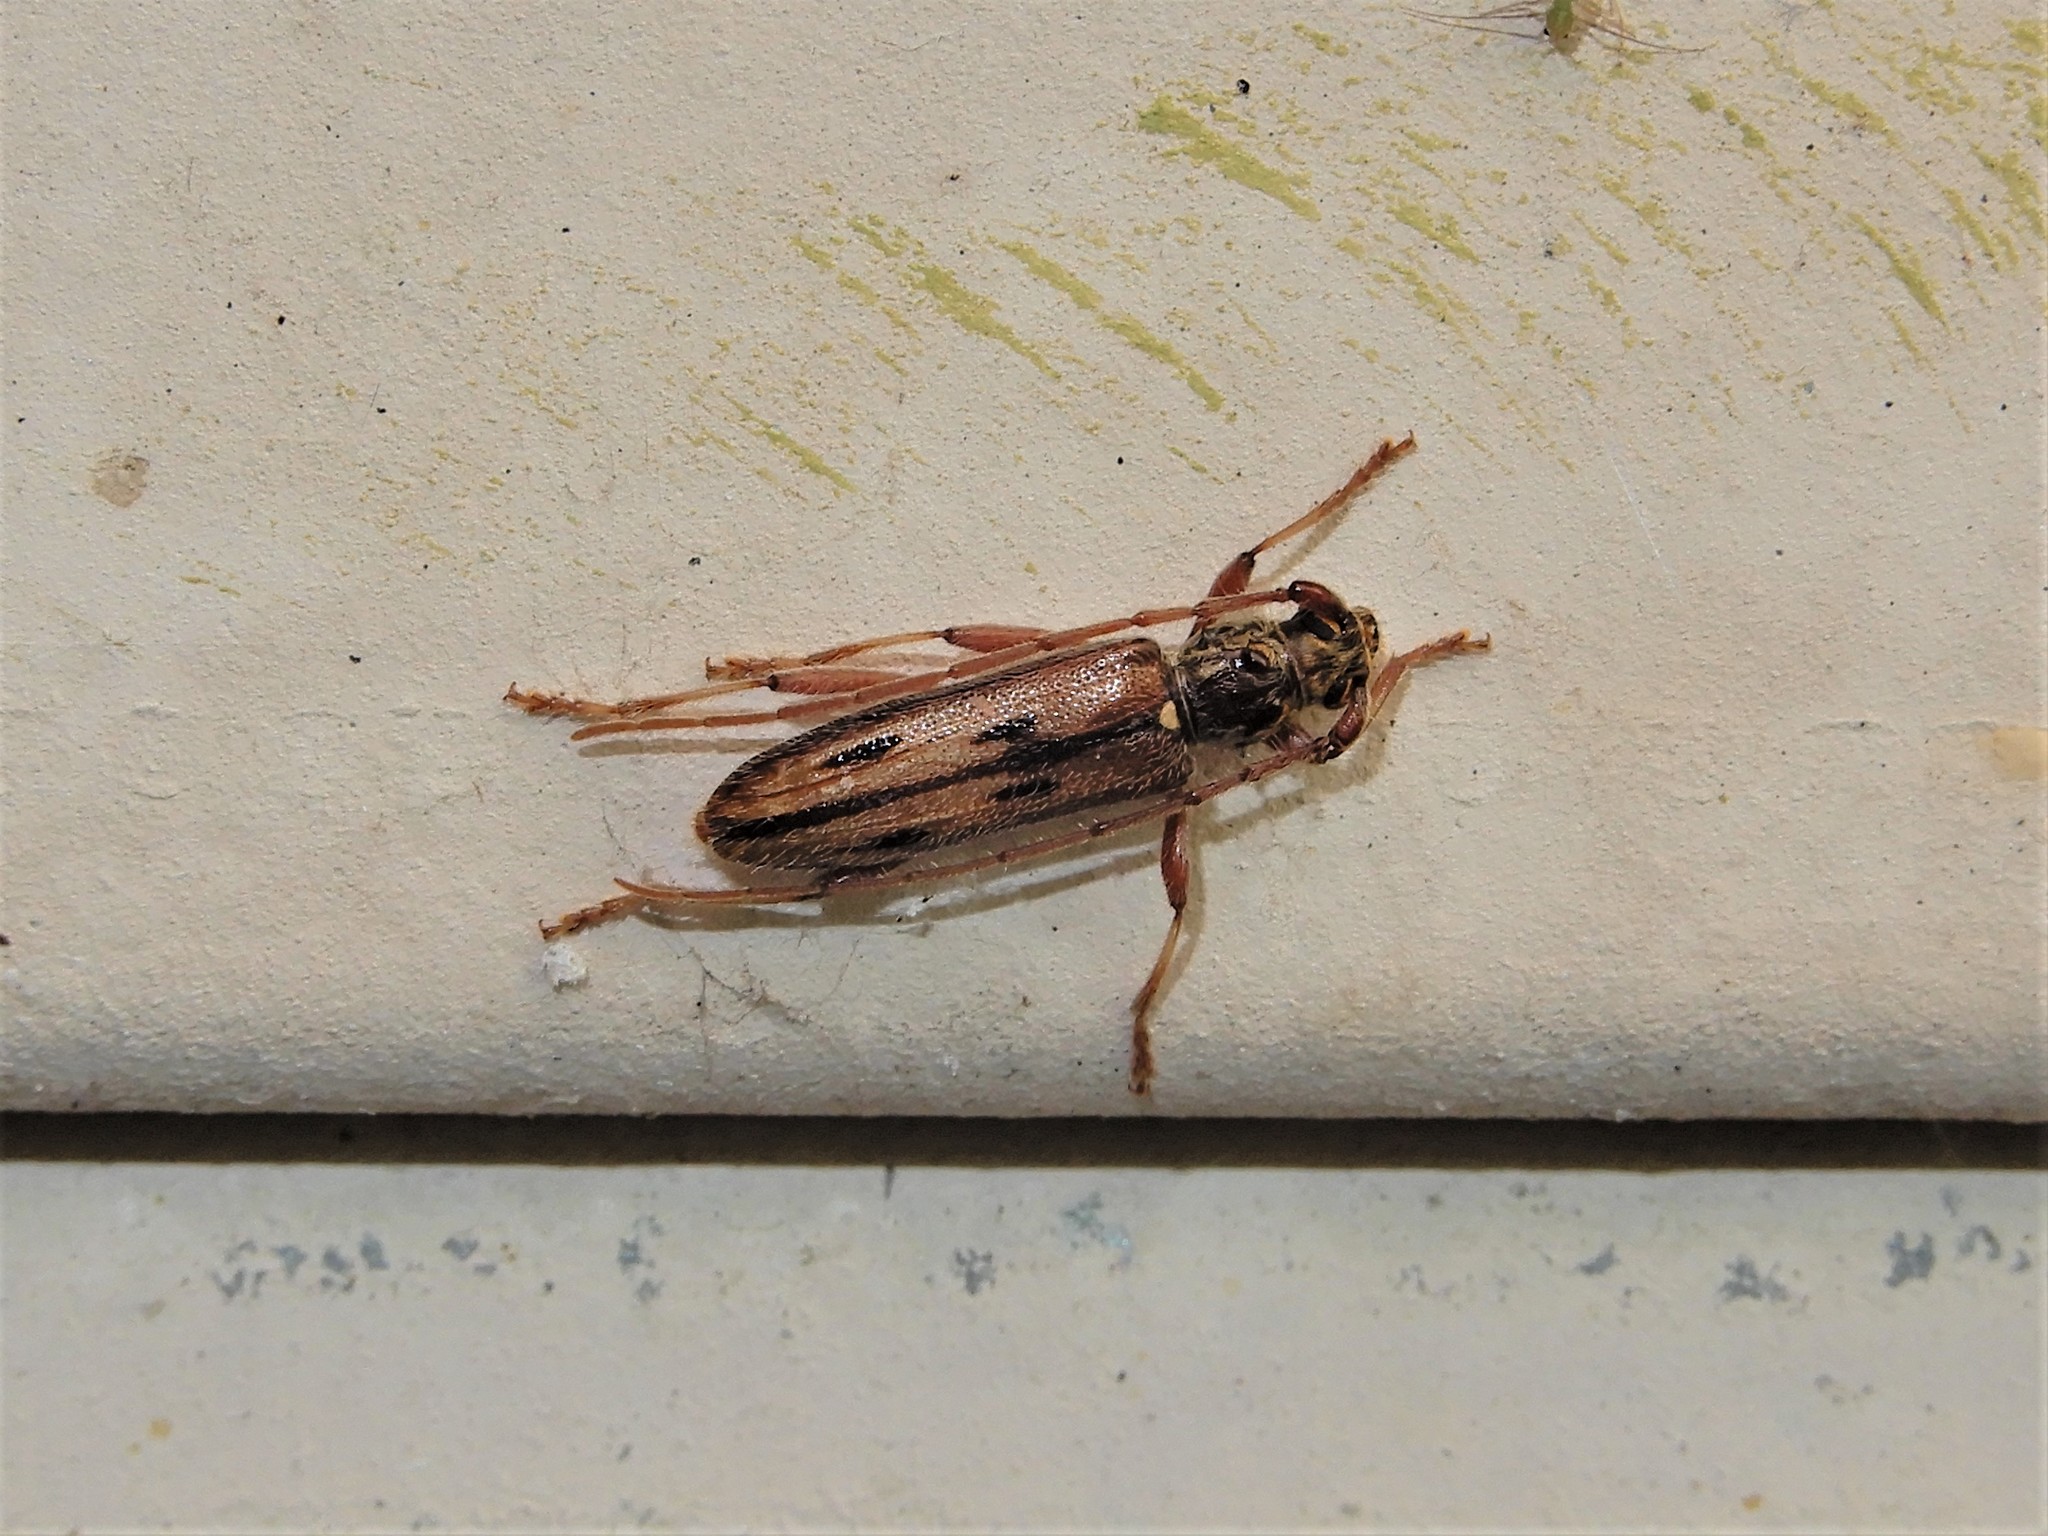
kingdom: Animalia
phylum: Arthropoda
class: Insecta
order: Coleoptera
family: Cerambycidae
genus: Didymocantha
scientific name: Didymocantha sublineata
